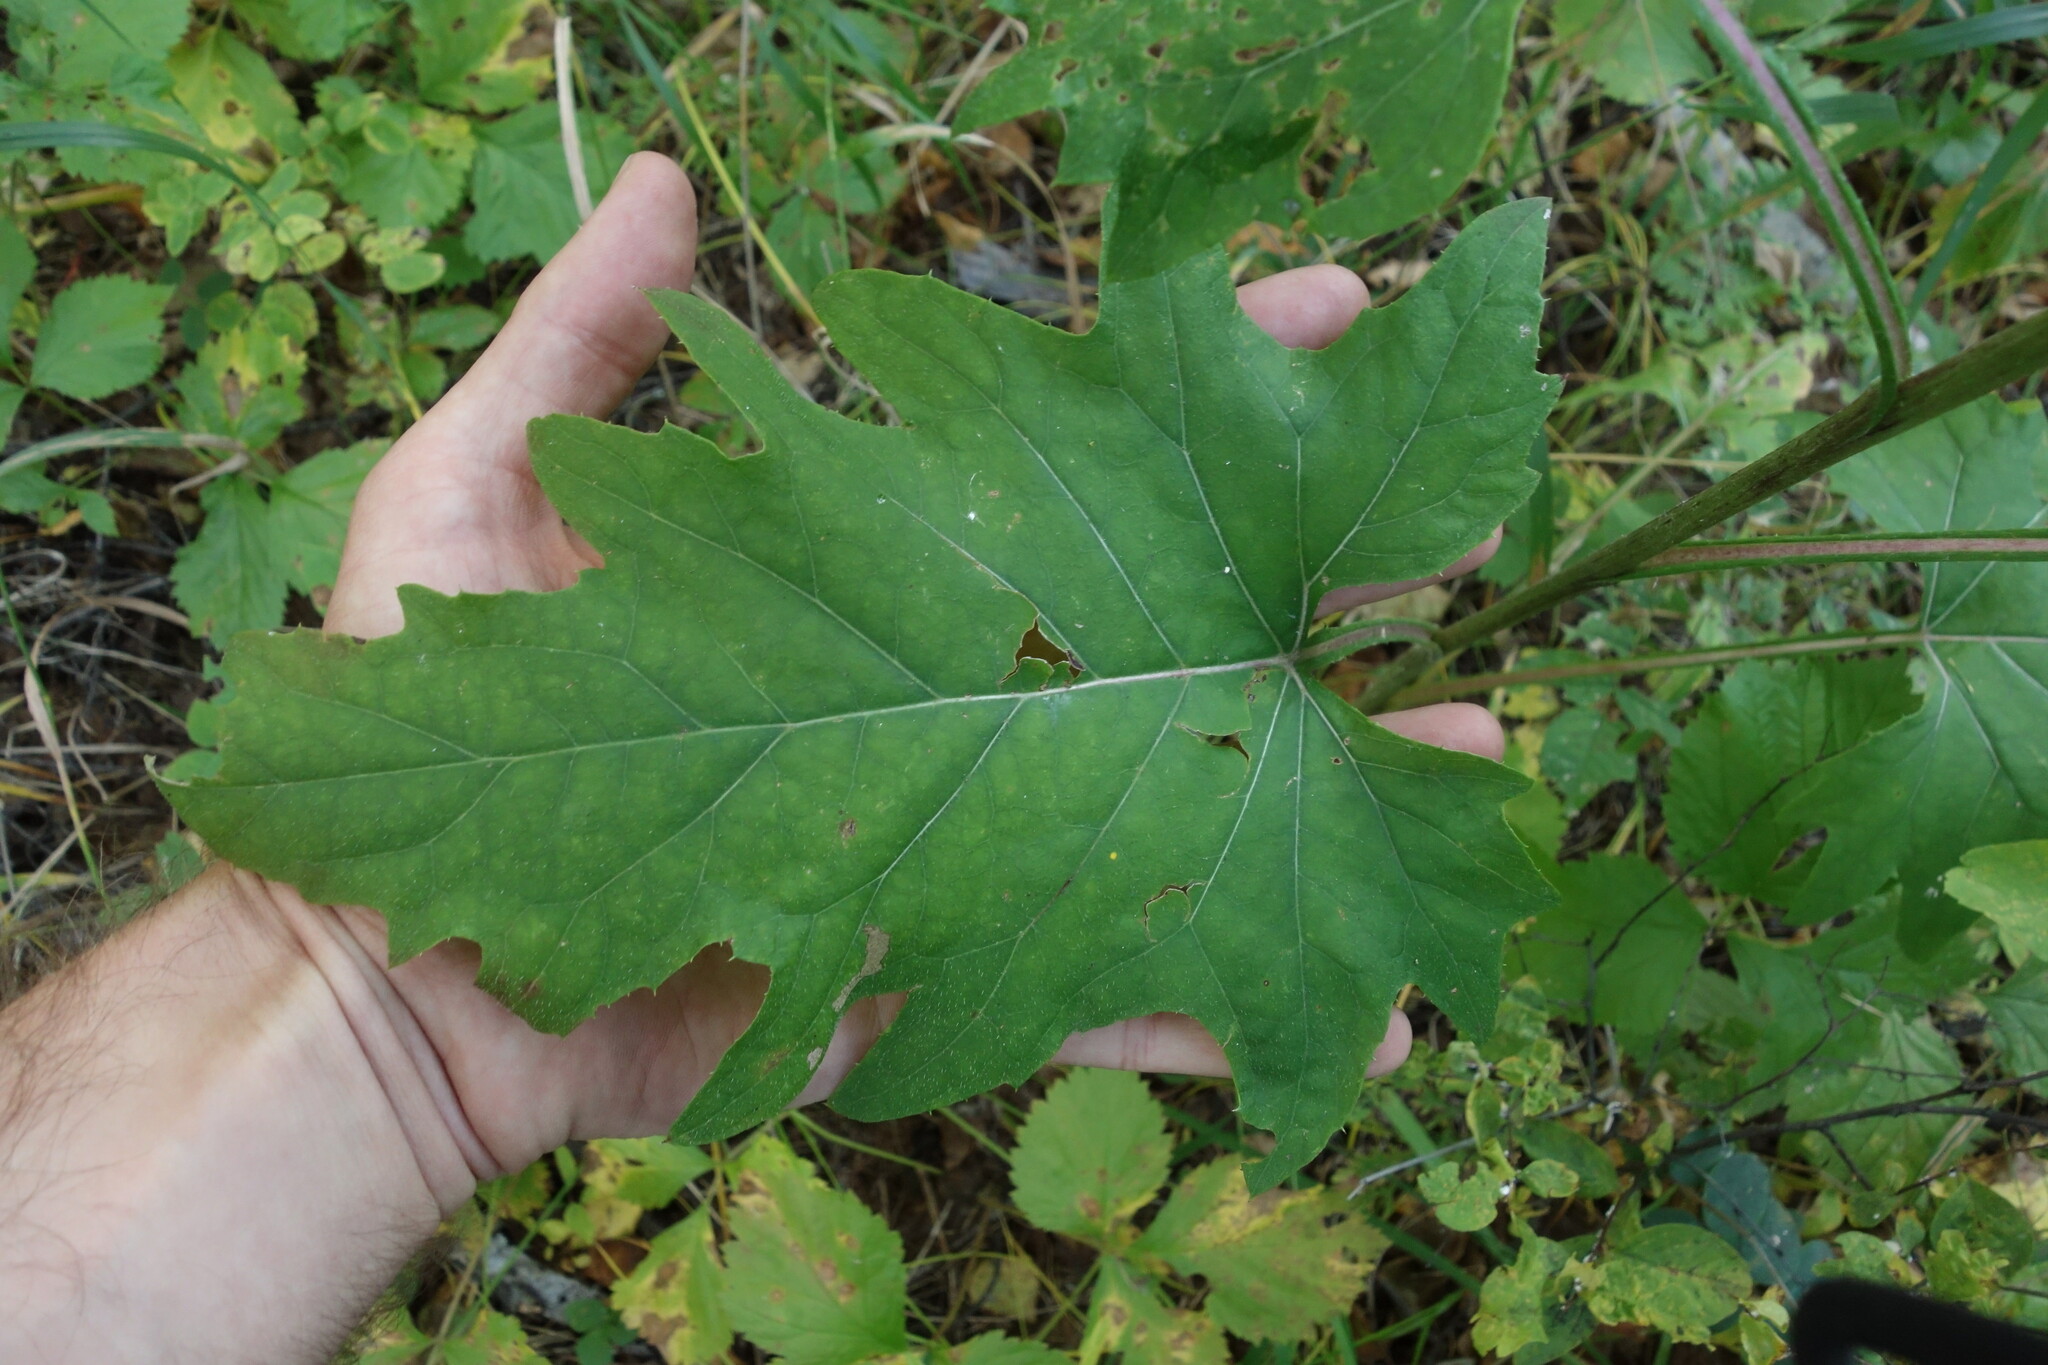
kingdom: Plantae
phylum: Tracheophyta
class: Magnoliopsida
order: Asterales
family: Asteraceae
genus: Synurus
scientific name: Synurus deltoides
